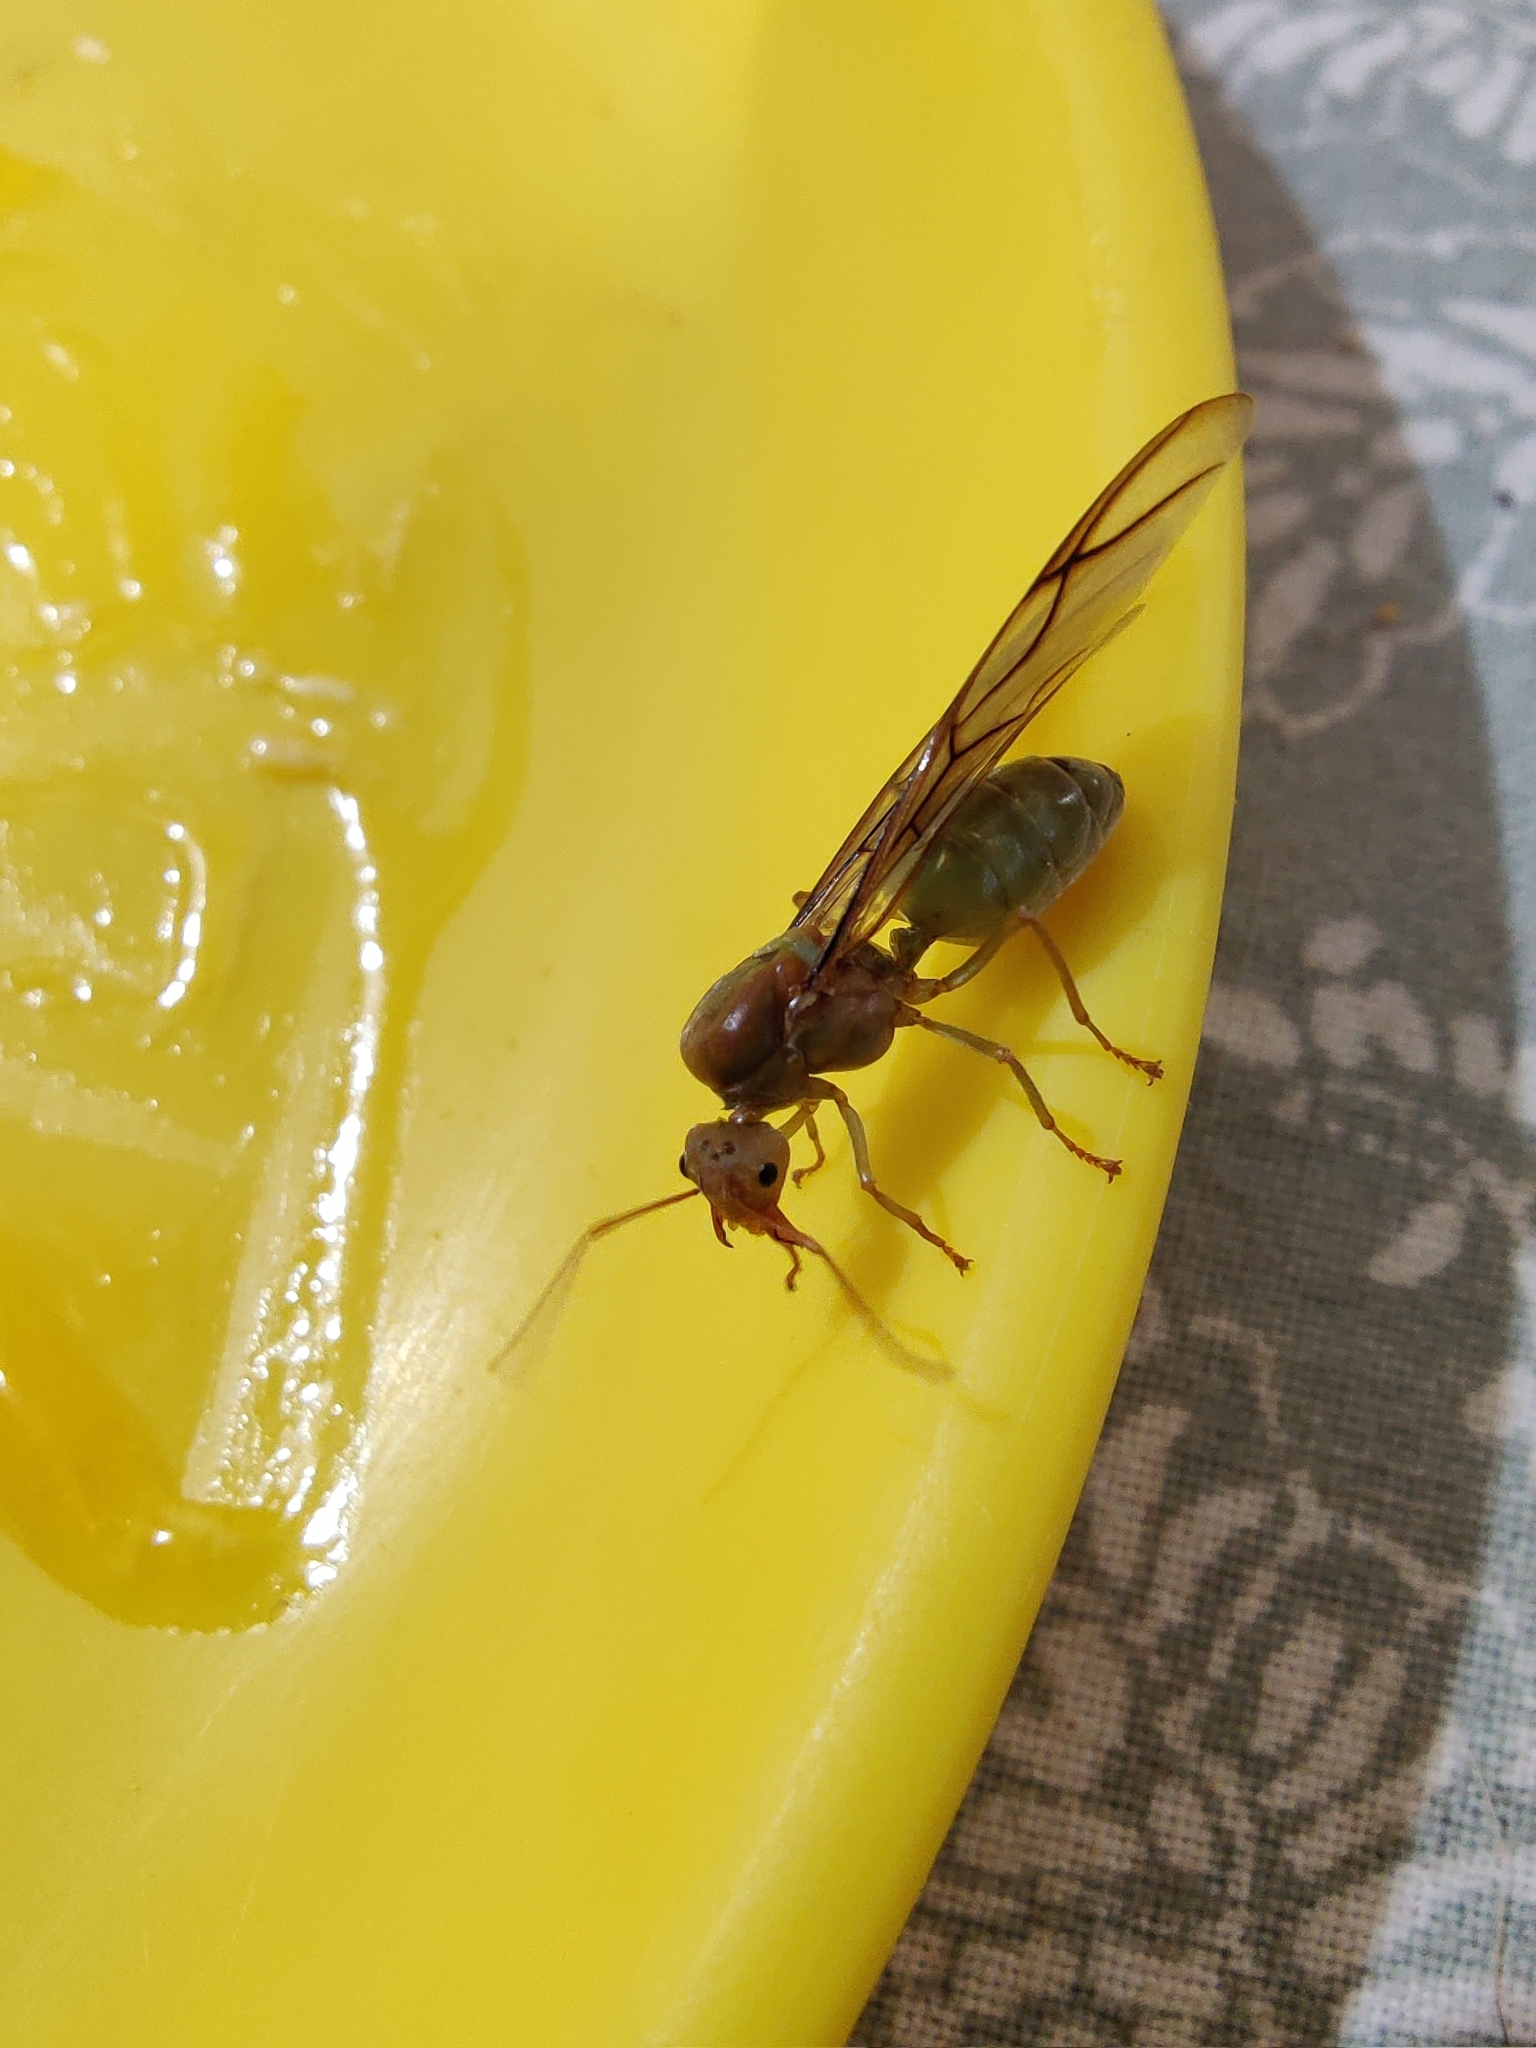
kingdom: Animalia
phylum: Arthropoda
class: Insecta
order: Hymenoptera
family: Formicidae
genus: Oecophylla
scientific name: Oecophylla smaragdina
